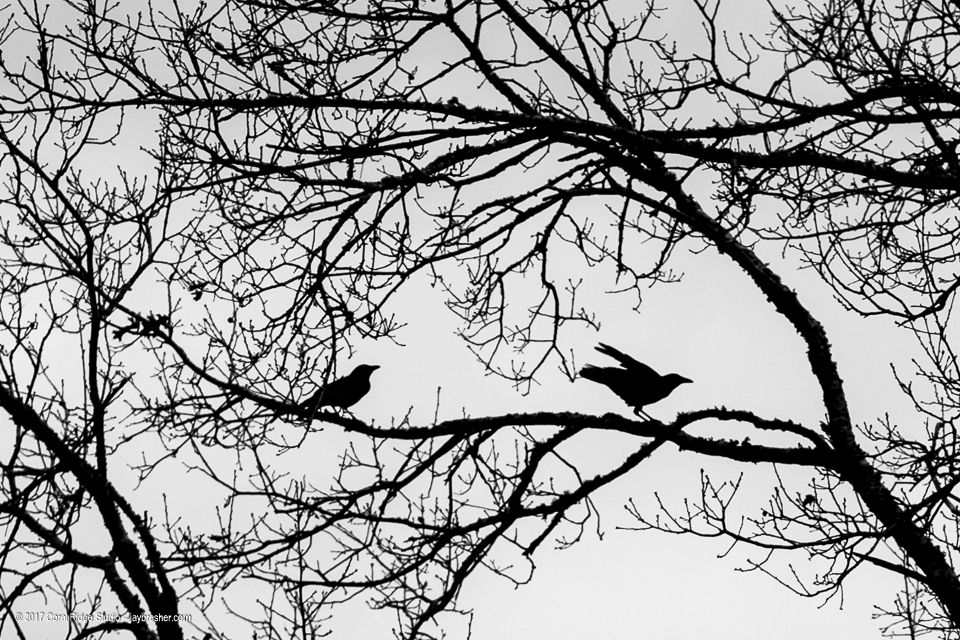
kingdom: Animalia
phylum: Chordata
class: Aves
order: Passeriformes
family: Corvidae
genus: Corvus
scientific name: Corvus brachyrhynchos
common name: American crow
